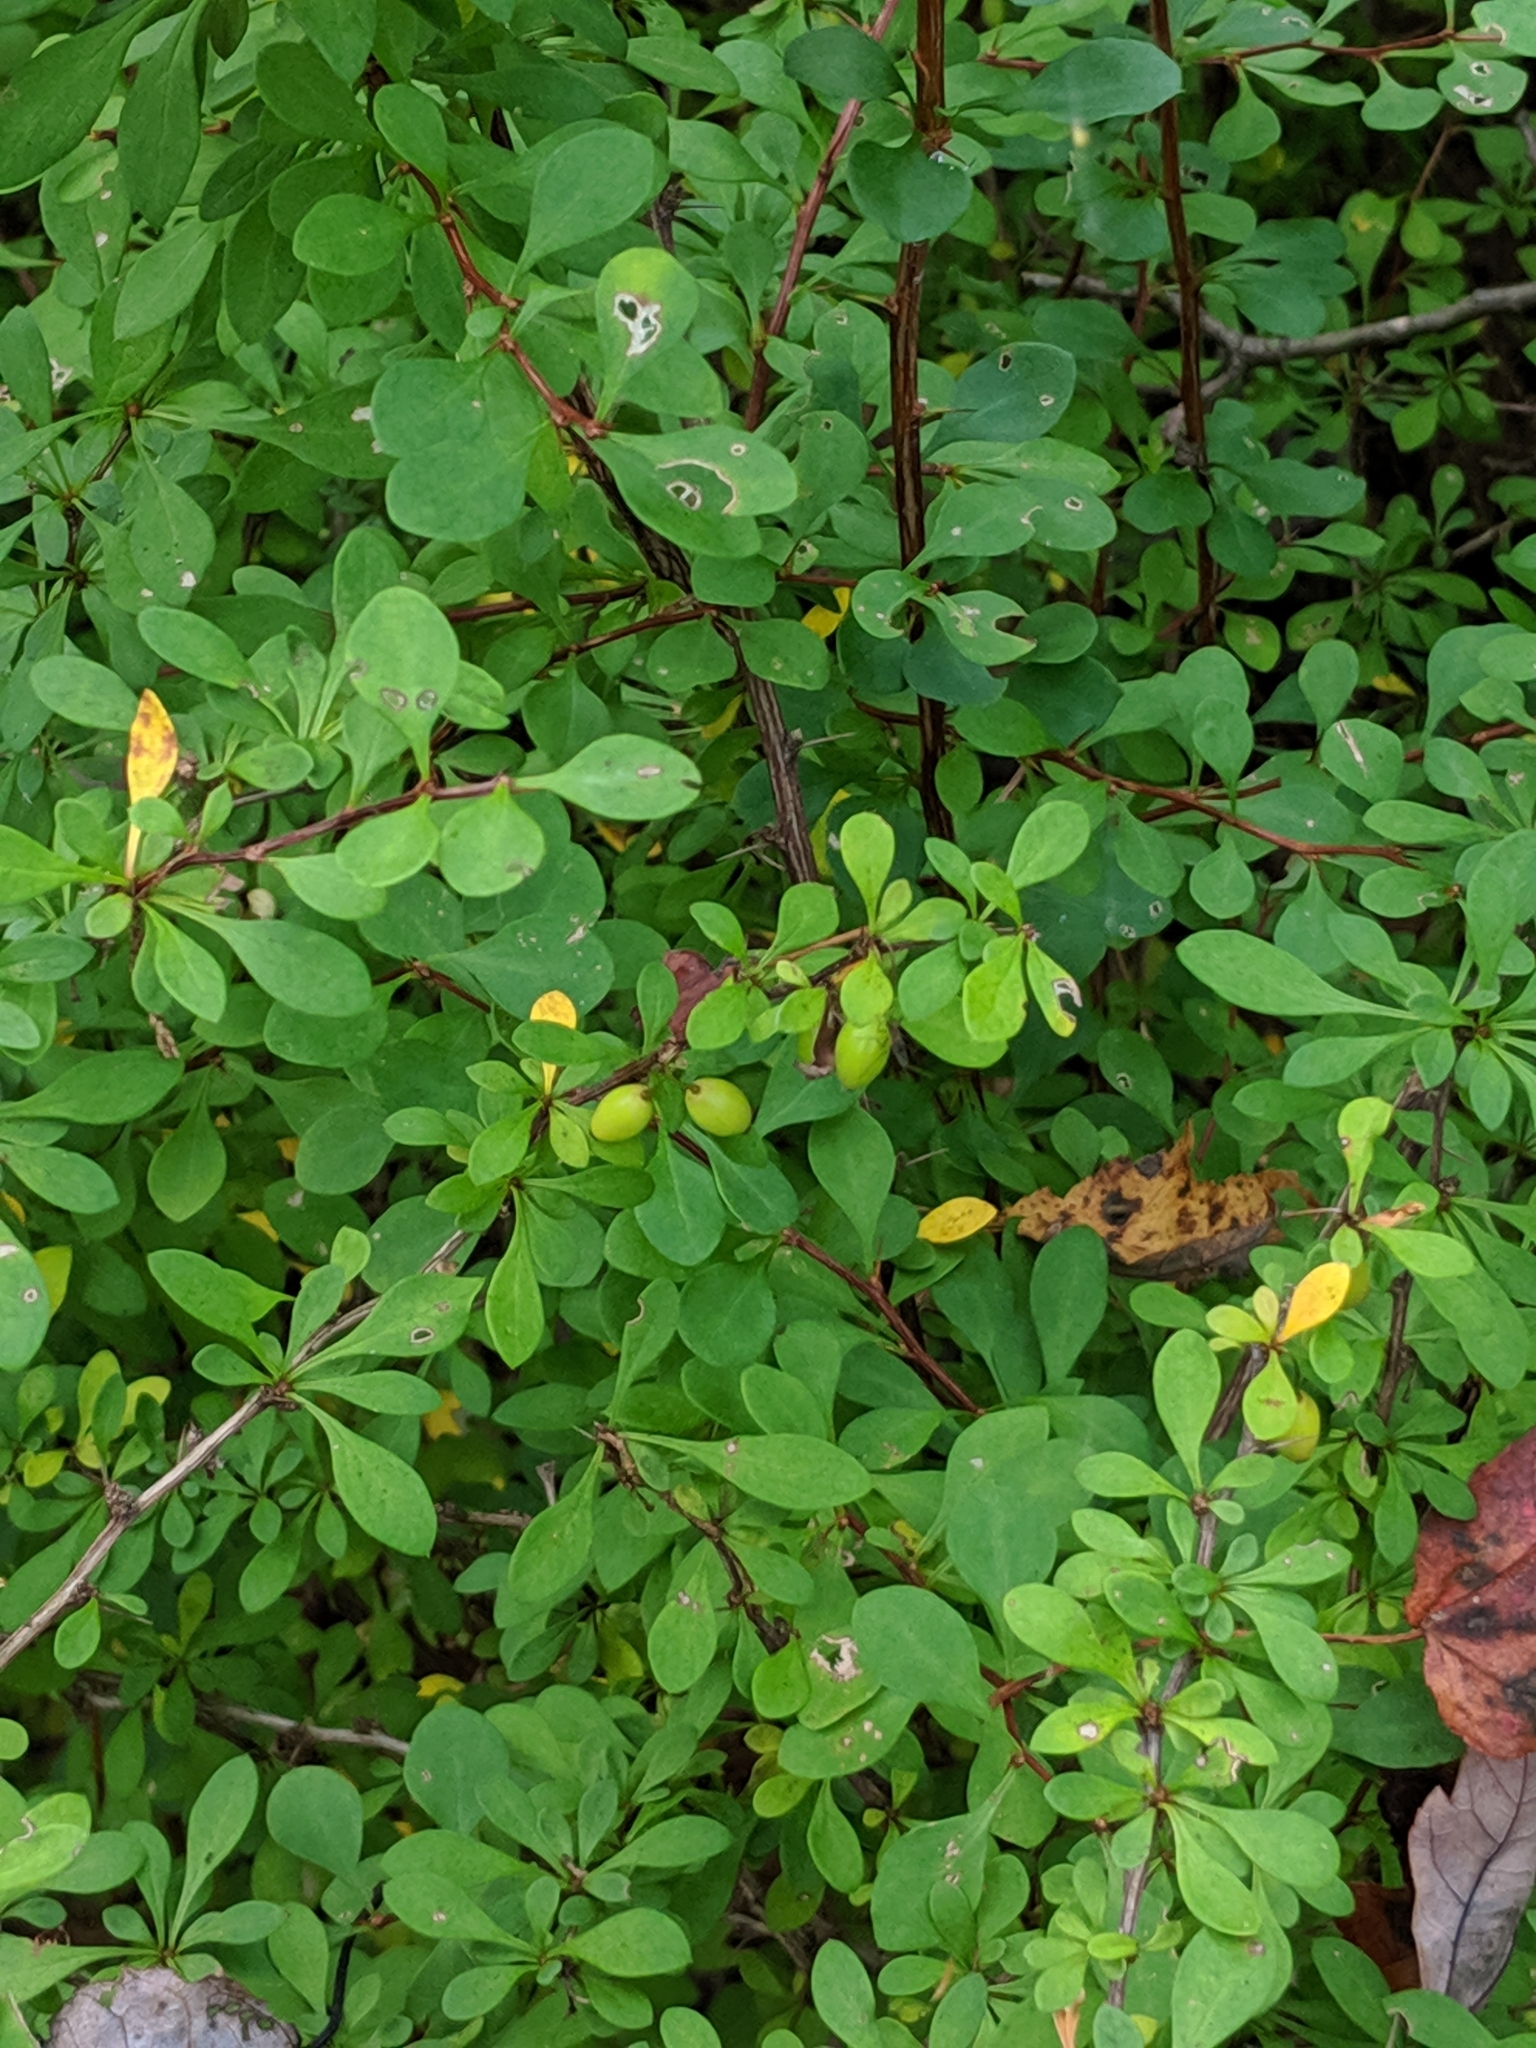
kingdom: Plantae
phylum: Tracheophyta
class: Magnoliopsida
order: Ranunculales
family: Berberidaceae
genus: Berberis
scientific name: Berberis thunbergii
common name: Japanese barberry
